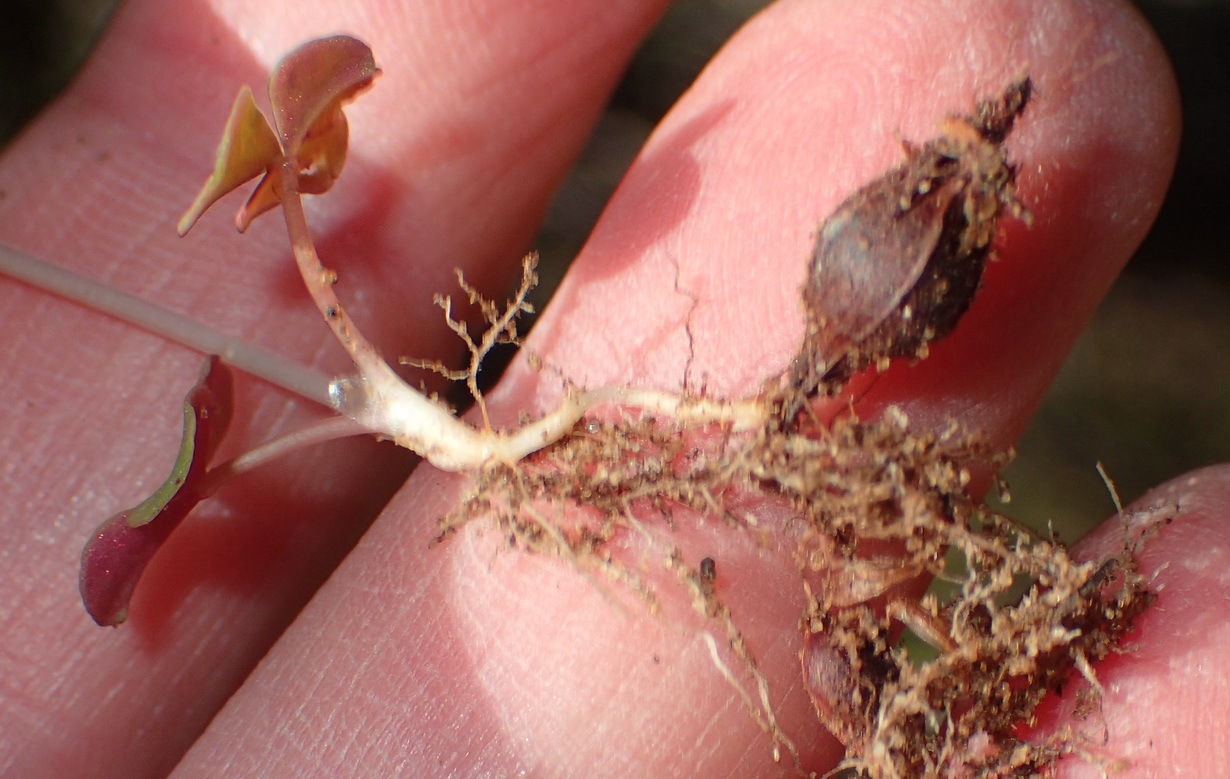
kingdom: Plantae
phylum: Tracheophyta
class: Magnoliopsida
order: Oxalidales
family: Oxalidaceae
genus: Oxalis
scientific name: Oxalis depressa
